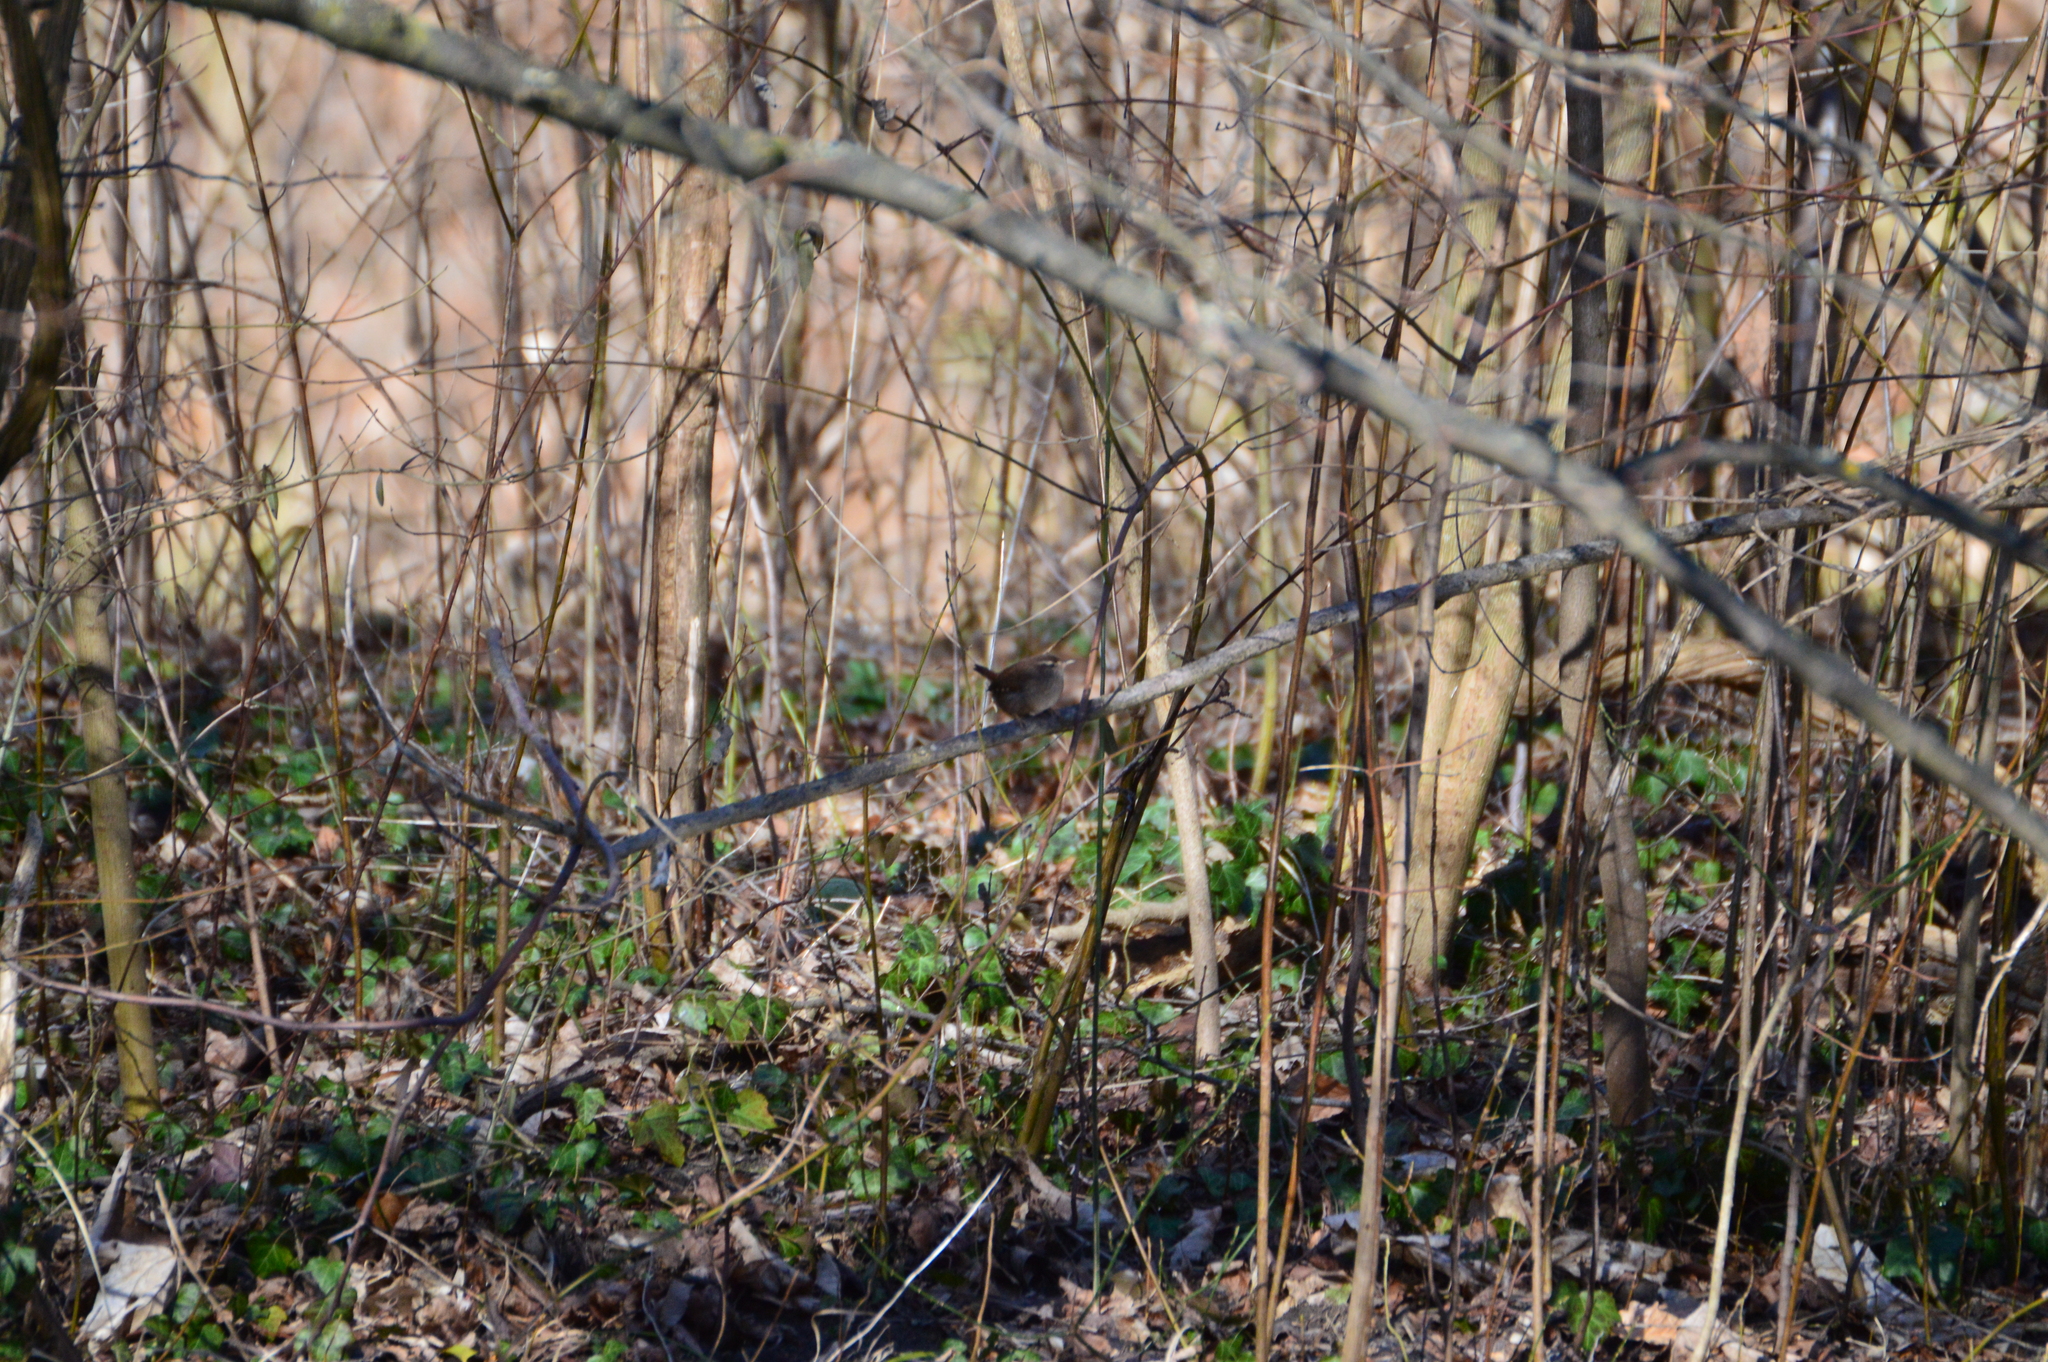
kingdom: Animalia
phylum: Chordata
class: Aves
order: Passeriformes
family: Troglodytidae
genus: Troglodytes
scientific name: Troglodytes troglodytes
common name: Eurasian wren
